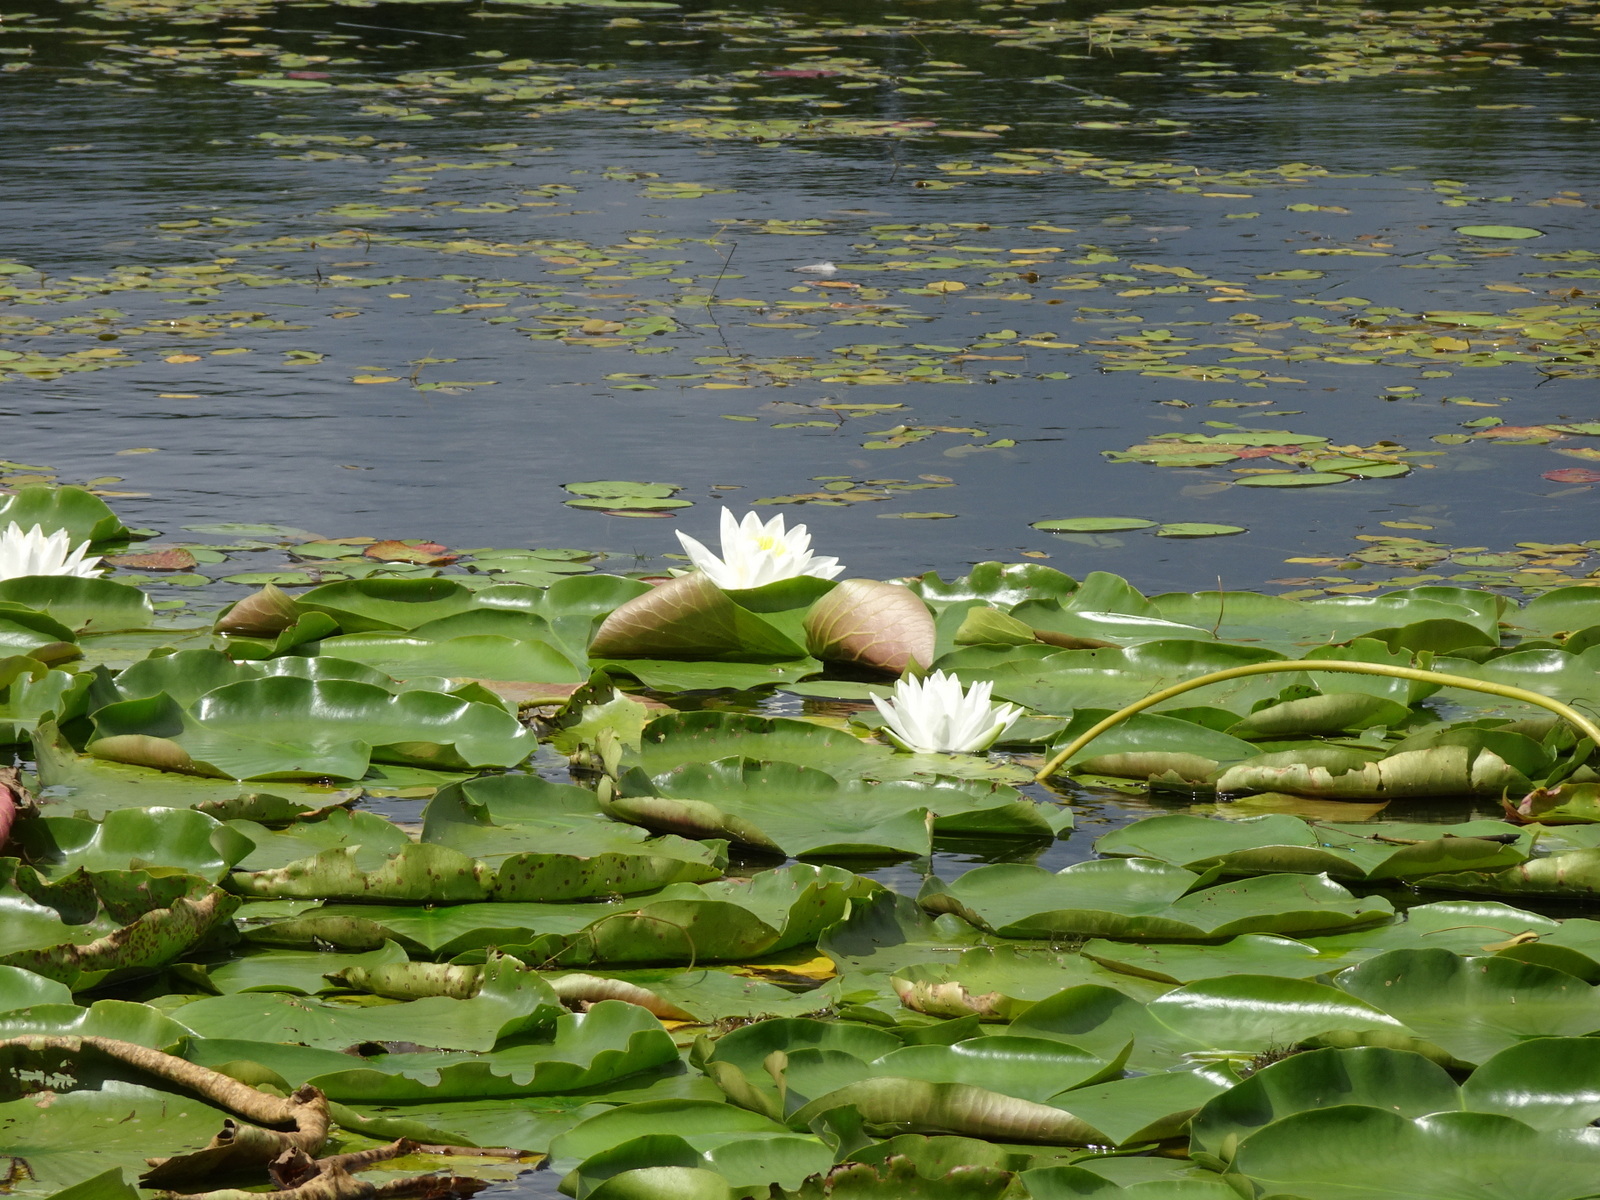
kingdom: Plantae
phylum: Tracheophyta
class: Magnoliopsida
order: Nymphaeales
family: Nymphaeaceae
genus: Nymphaea
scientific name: Nymphaea odorata
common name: Fragrant water-lily
